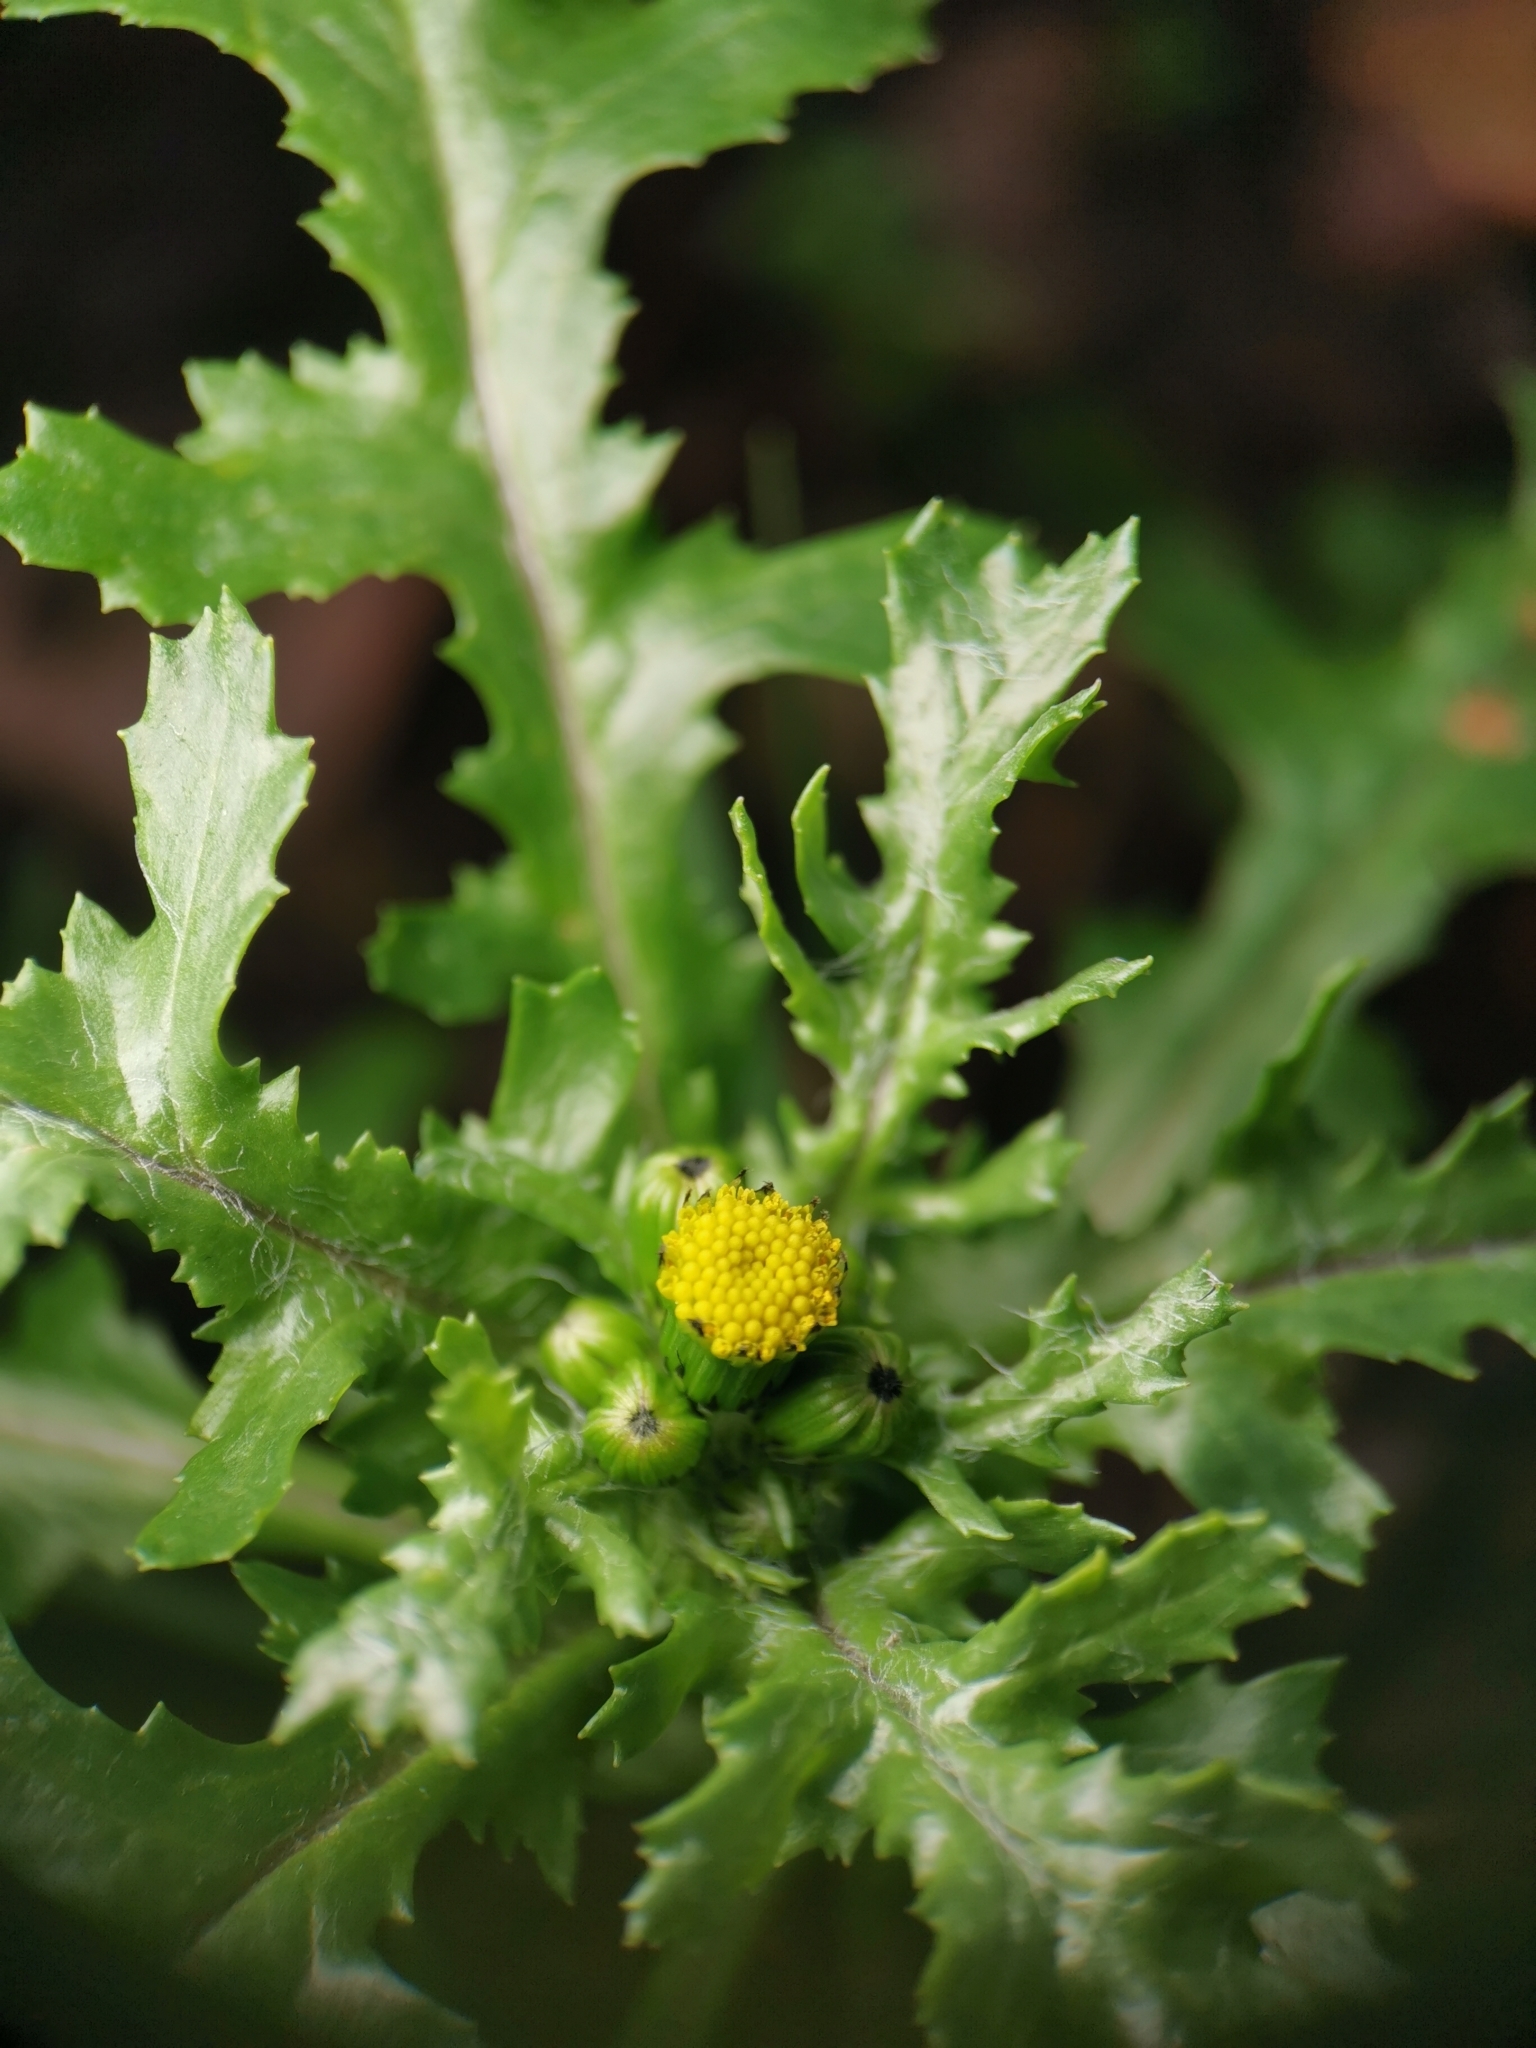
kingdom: Plantae
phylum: Tracheophyta
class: Magnoliopsida
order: Asterales
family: Asteraceae
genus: Senecio
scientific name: Senecio vulgaris
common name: Old-man-in-the-spring
